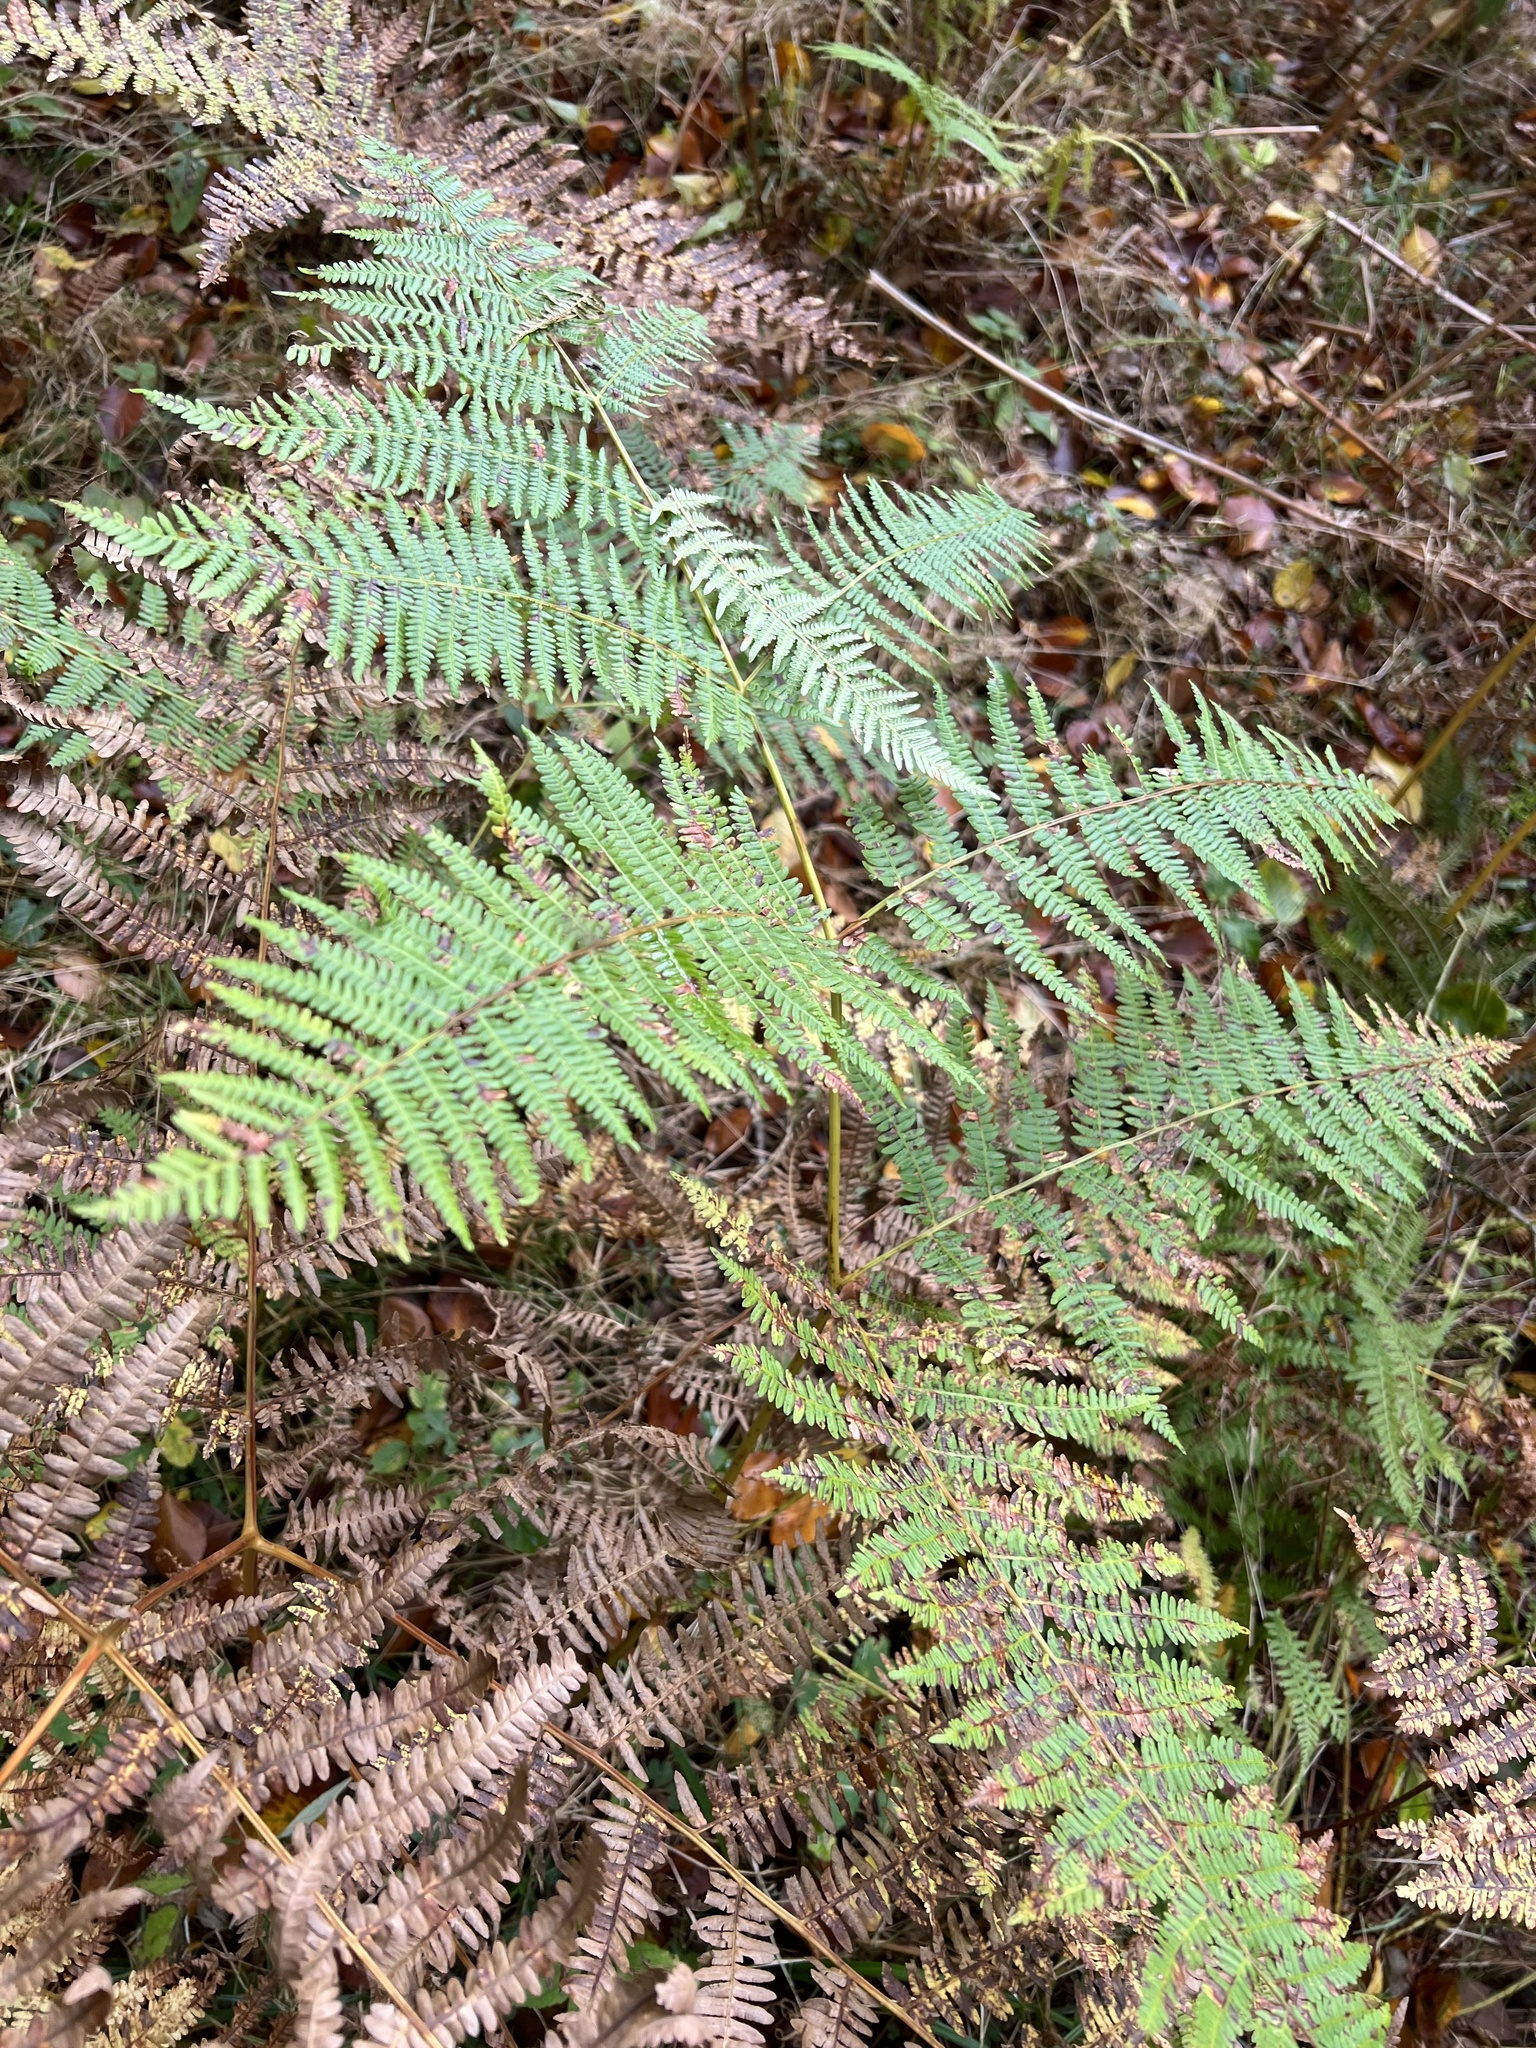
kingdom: Plantae
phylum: Tracheophyta
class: Polypodiopsida
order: Polypodiales
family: Dennstaedtiaceae
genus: Pteridium
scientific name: Pteridium aquilinum
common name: Bracken
